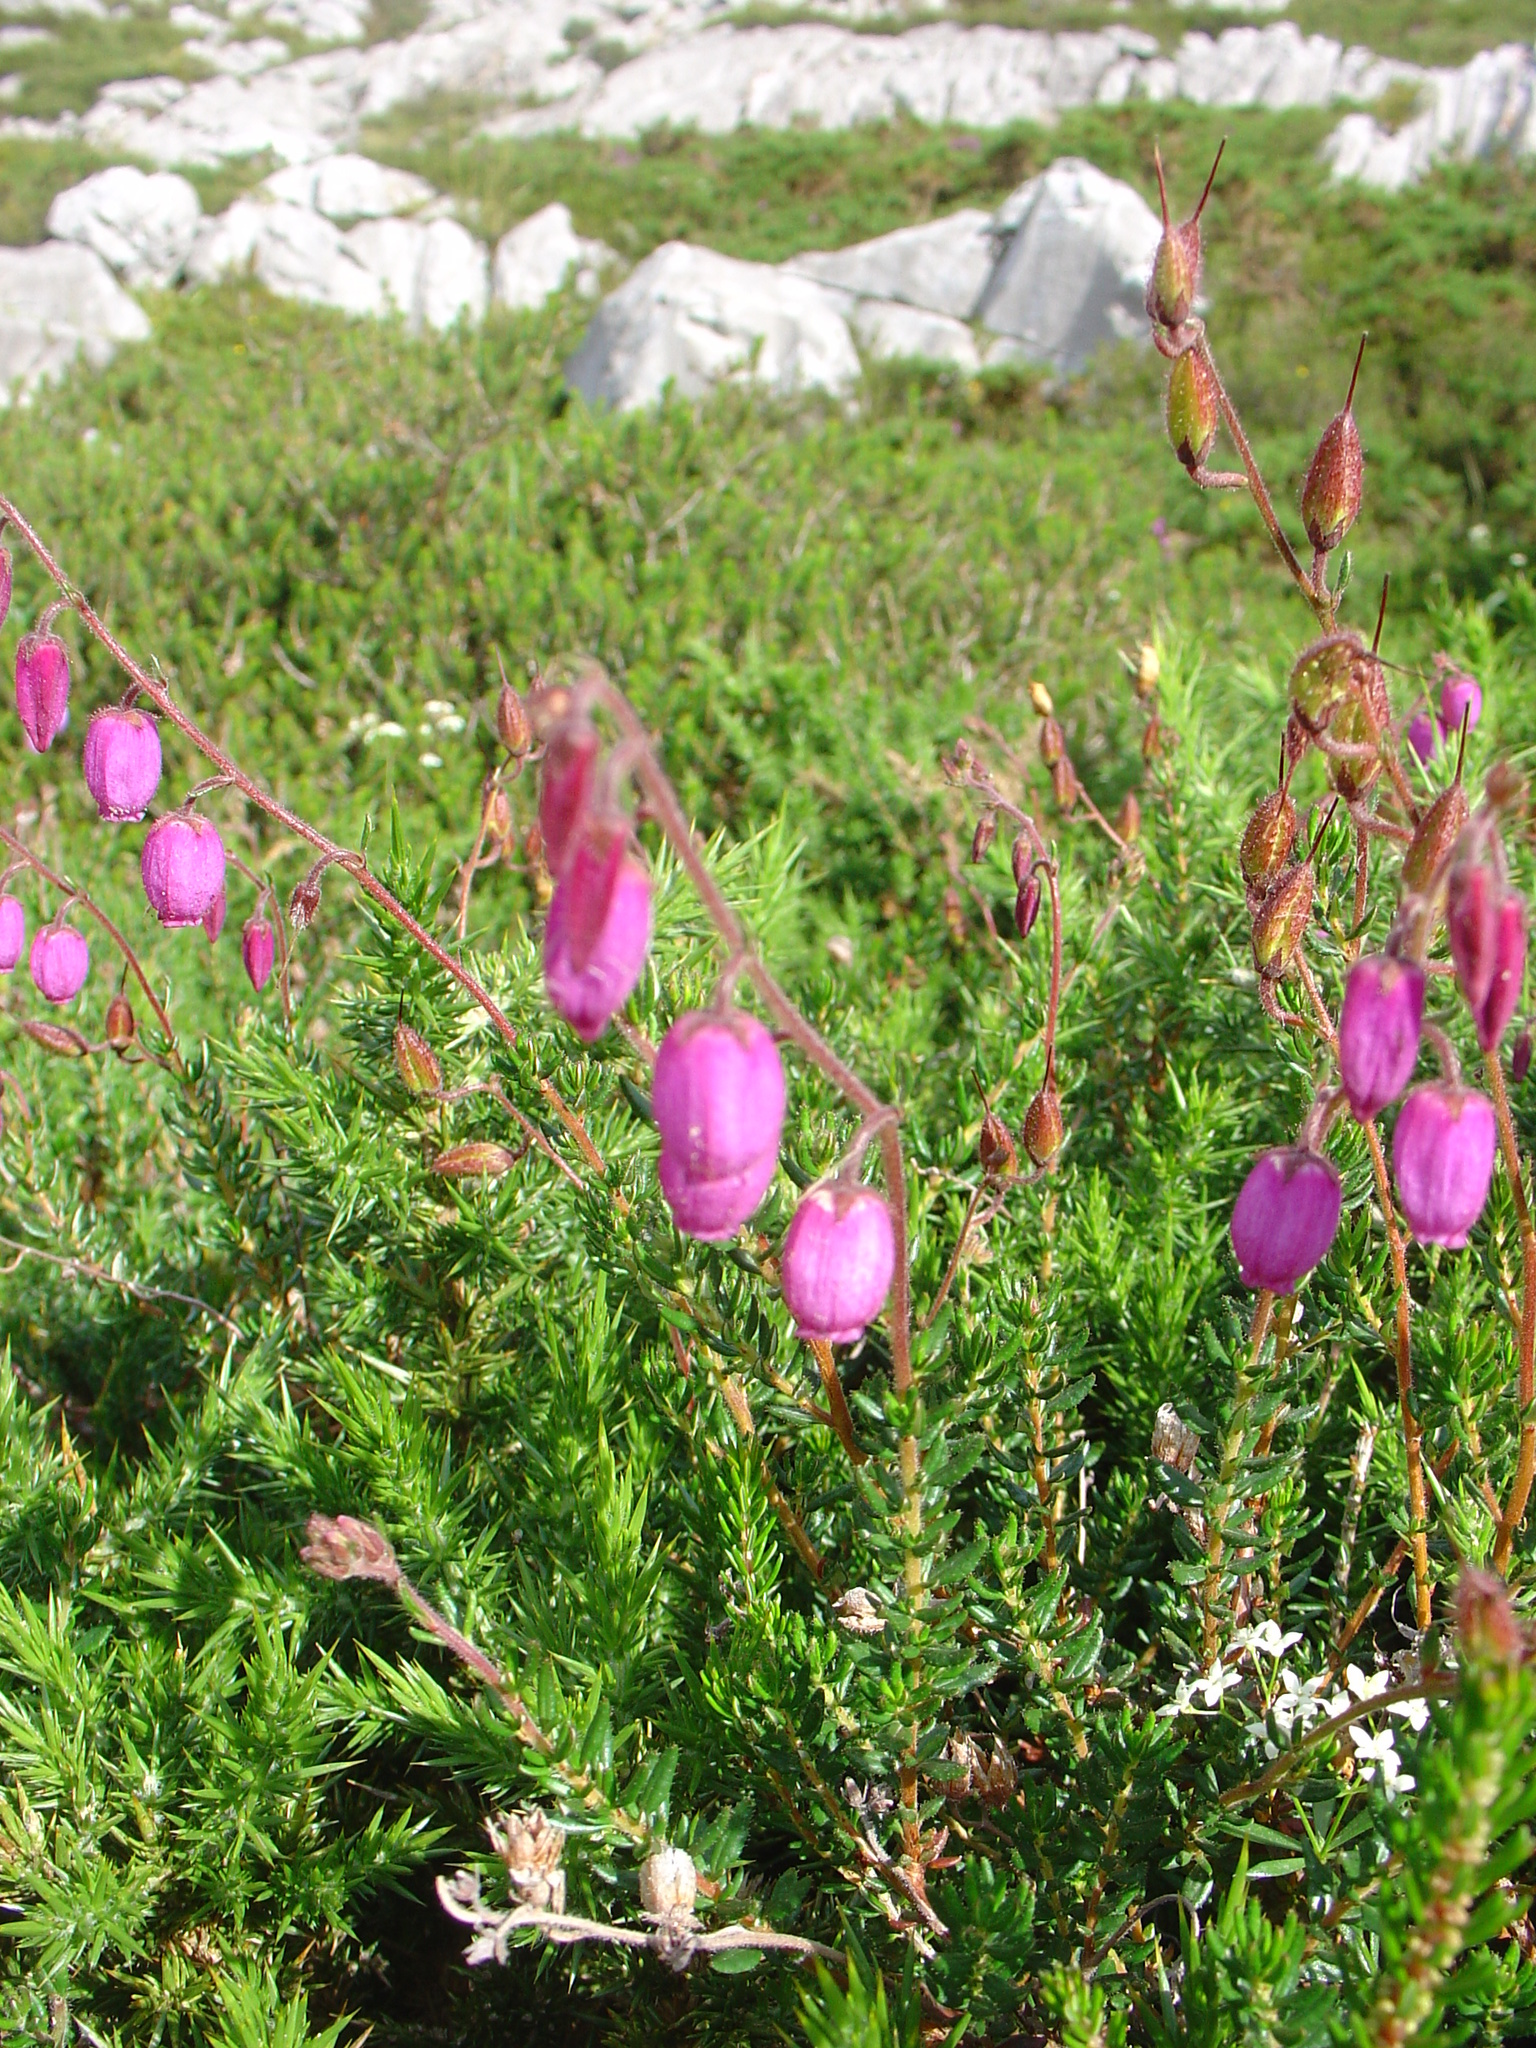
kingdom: Plantae
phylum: Tracheophyta
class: Magnoliopsida
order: Ericales
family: Ericaceae
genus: Daboecia
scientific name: Daboecia cantabrica
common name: St. dabeoc's-heath
